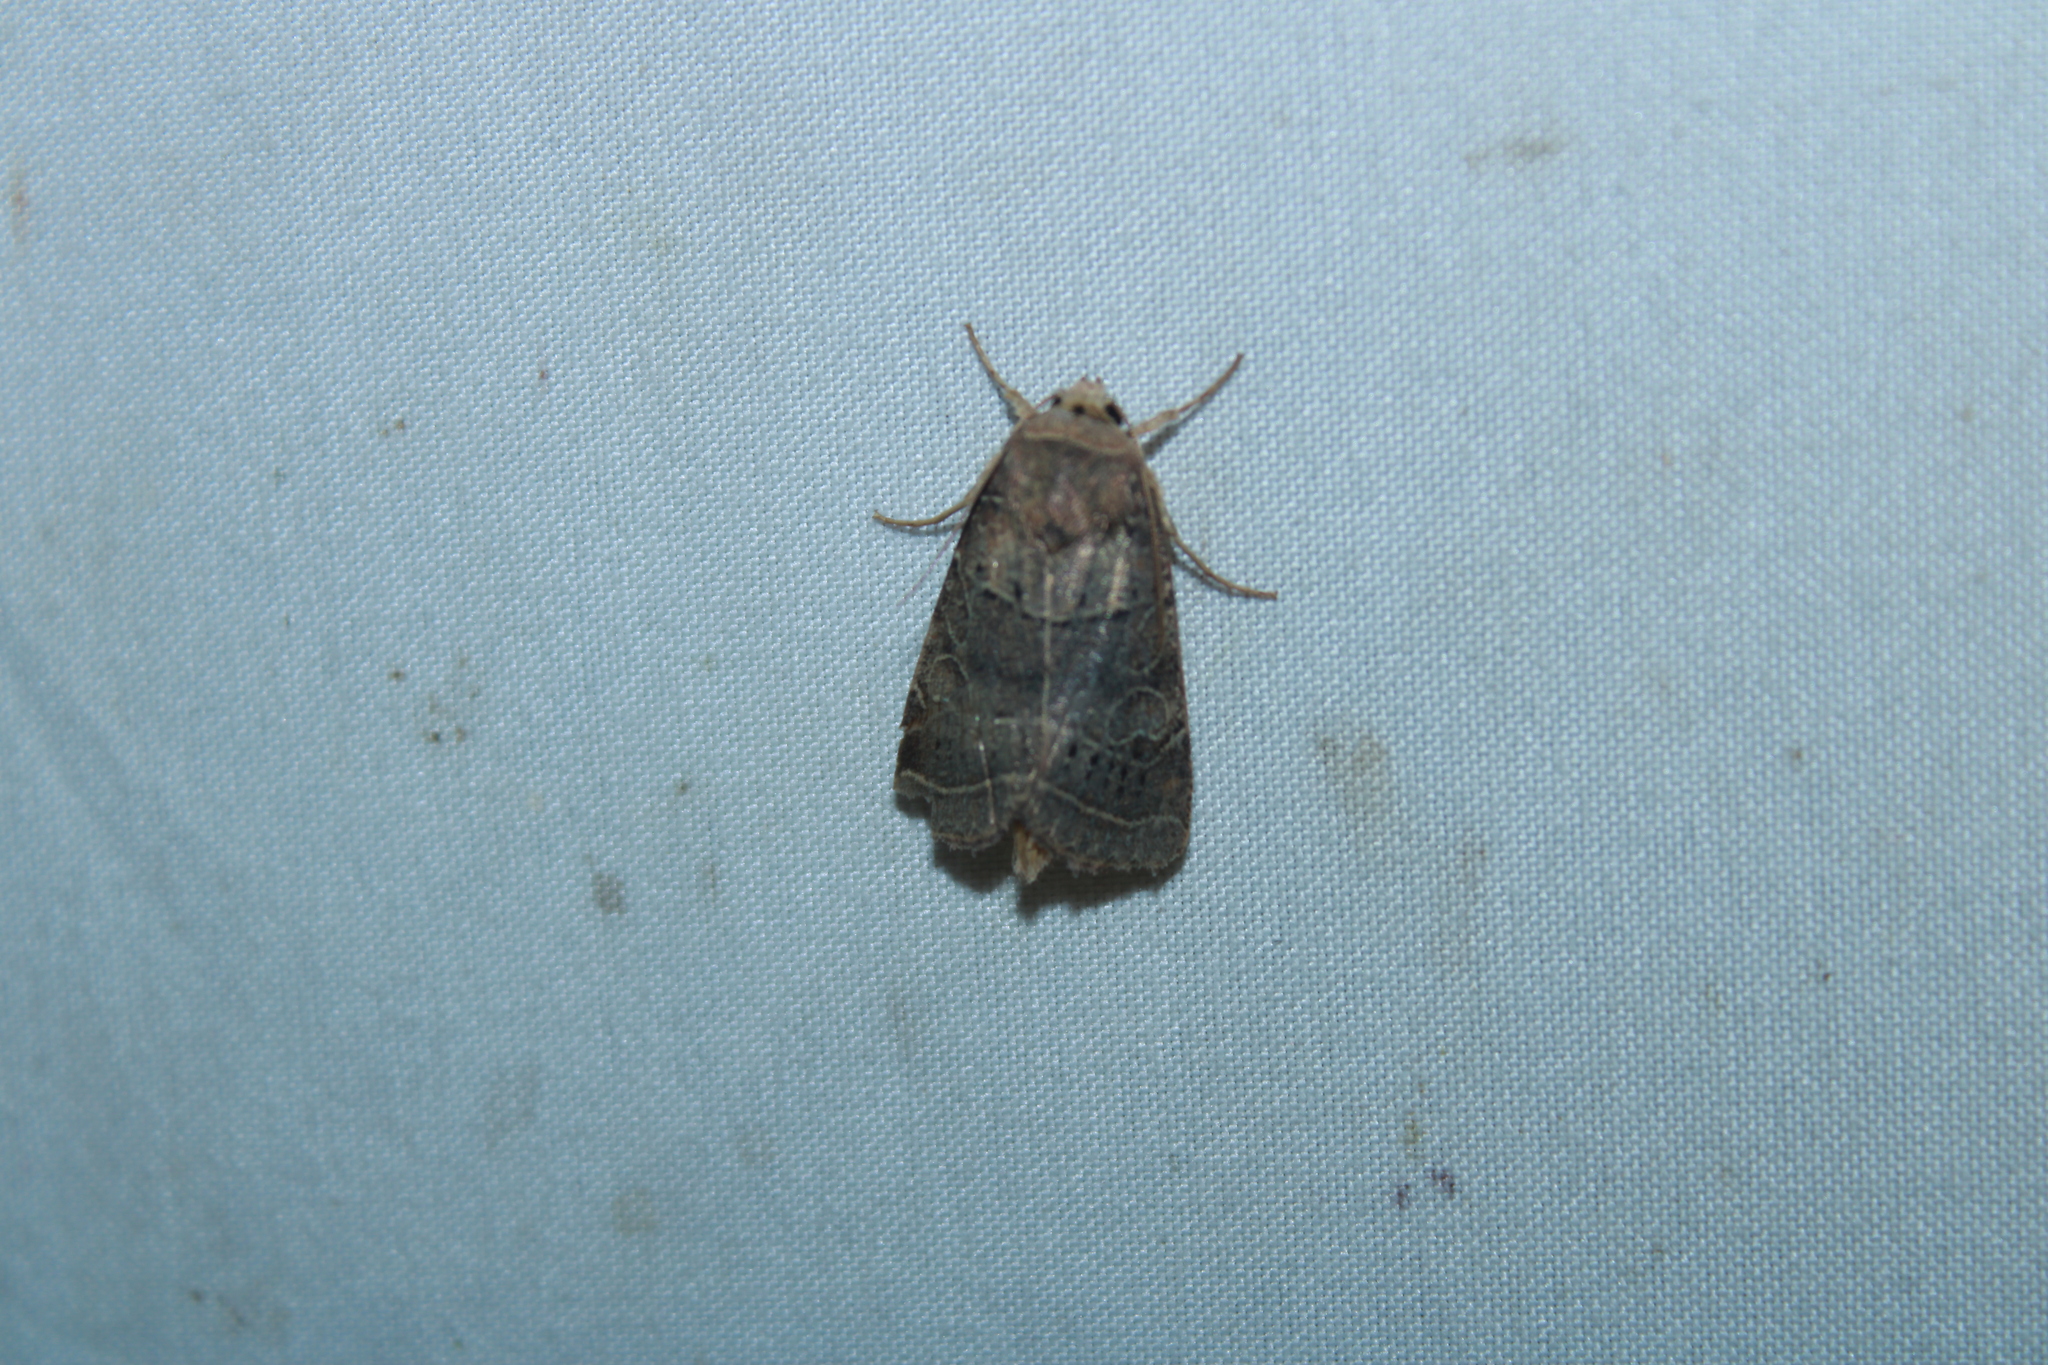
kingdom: Animalia
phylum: Arthropoda
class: Insecta
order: Lepidoptera
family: Noctuidae
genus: Orthodes
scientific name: Orthodes majuscula
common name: Rustic quaker
